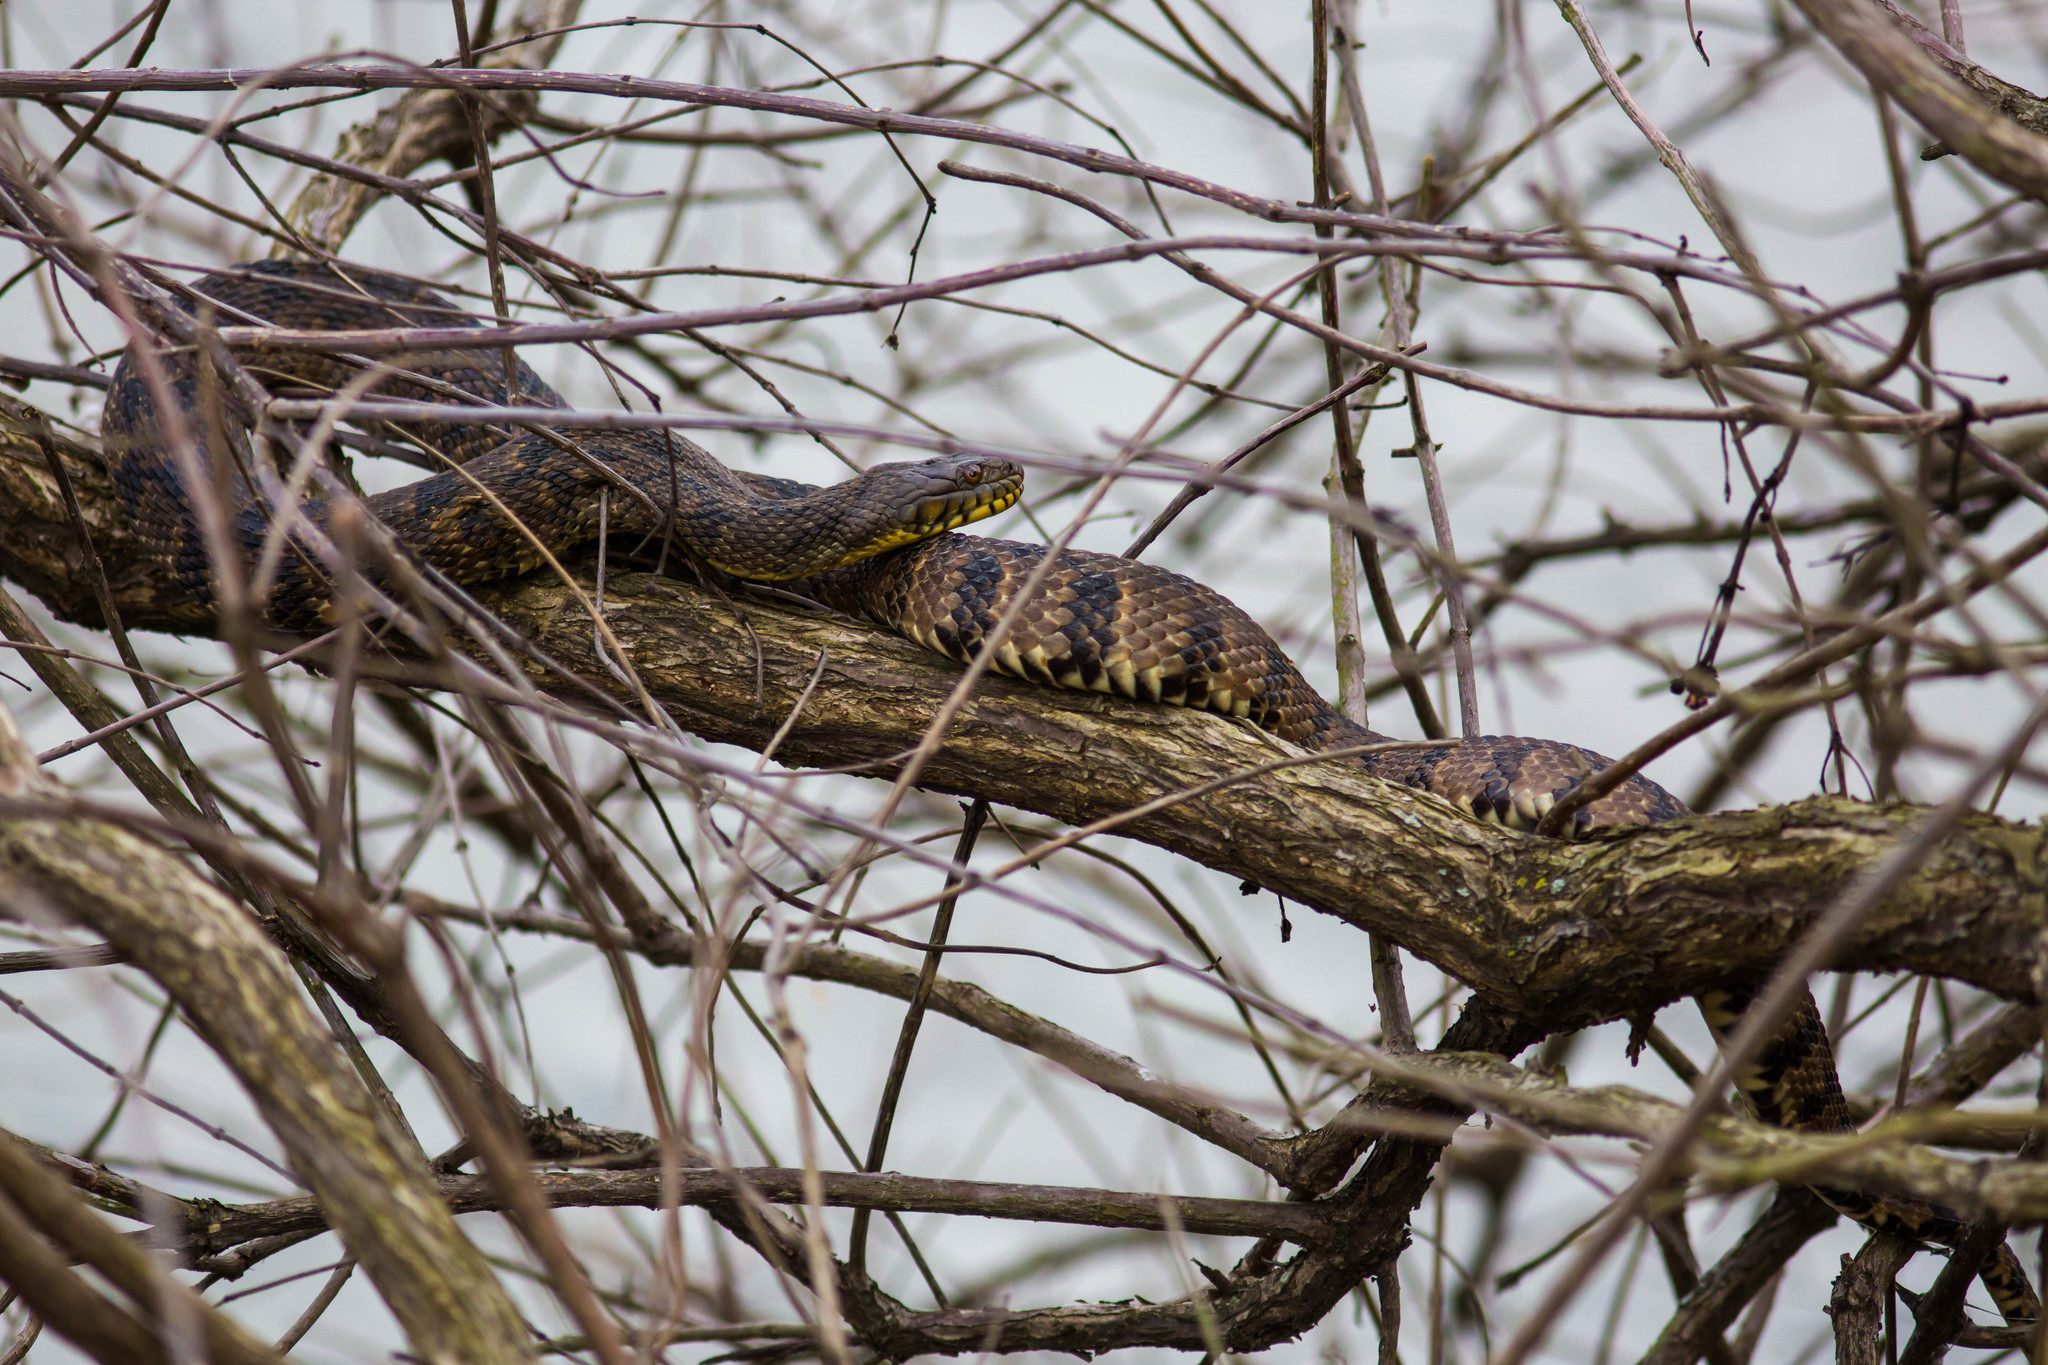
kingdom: Animalia
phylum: Chordata
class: Squamata
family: Colubridae
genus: Nerodia
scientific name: Nerodia rhombifer
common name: Diamondback water snake
